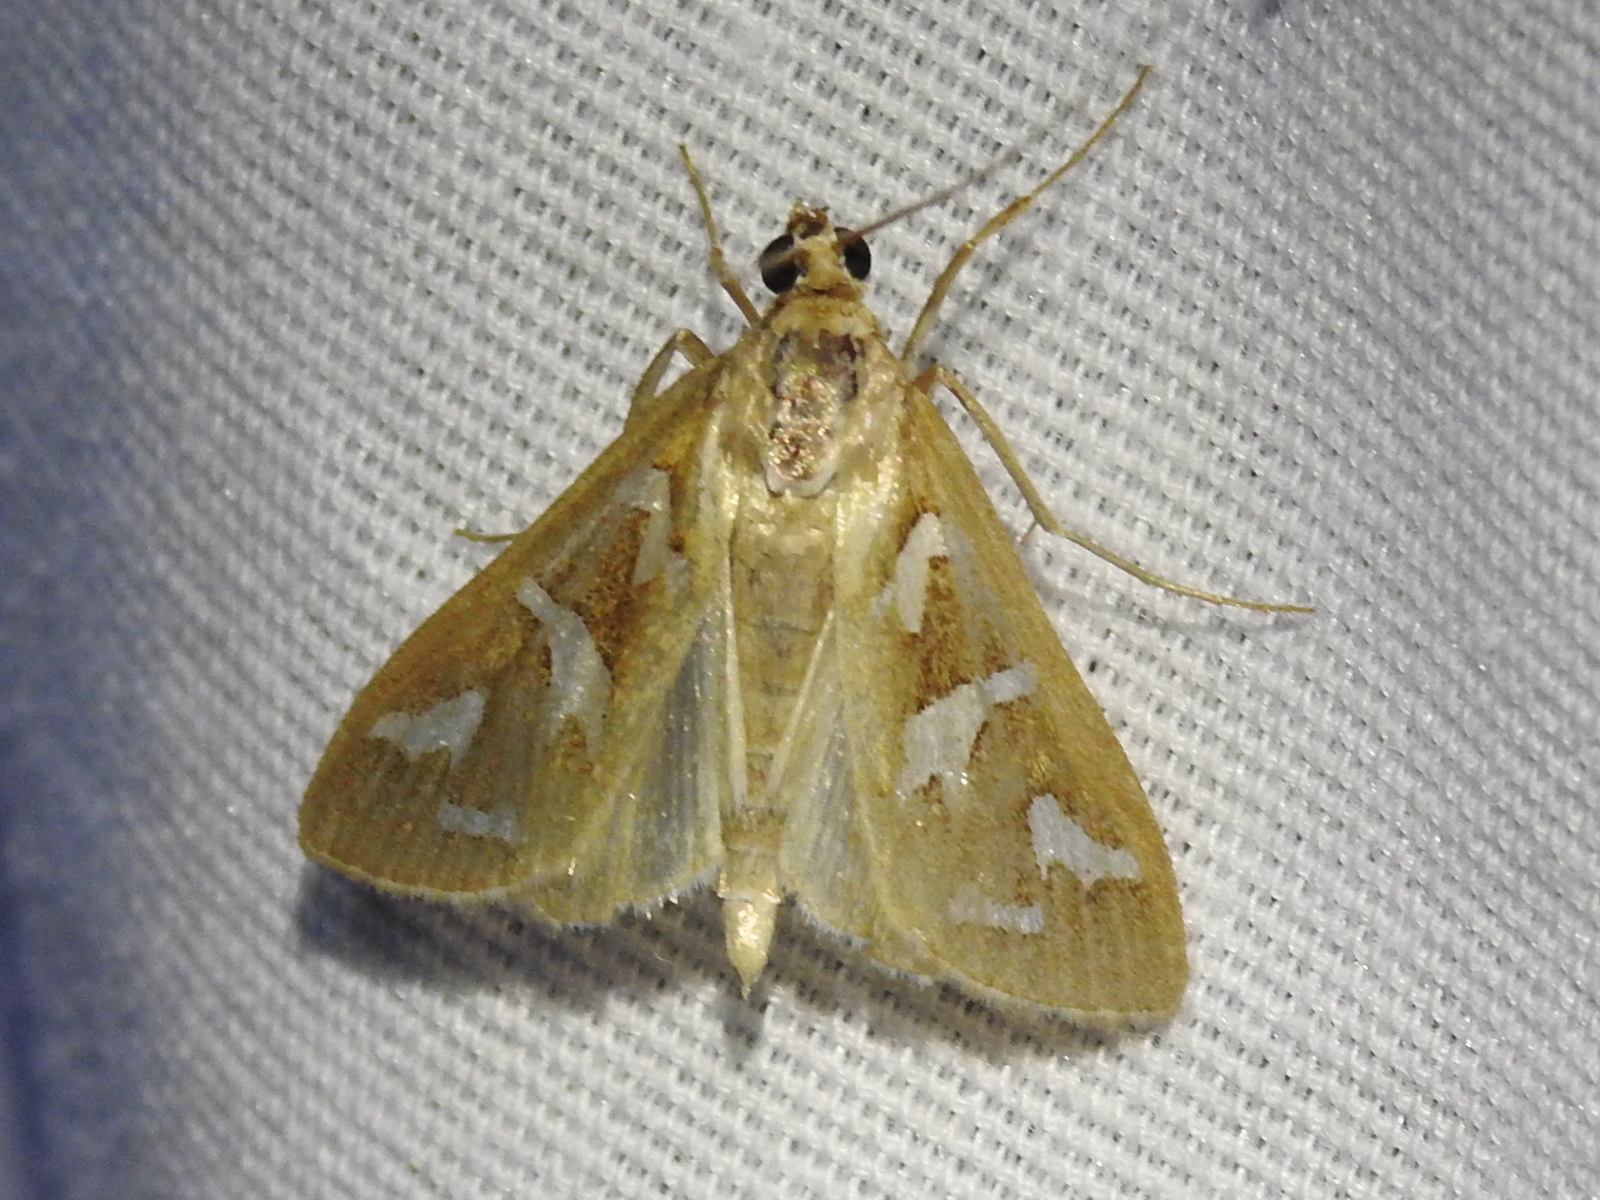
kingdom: Animalia
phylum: Arthropoda
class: Insecta
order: Lepidoptera
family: Crambidae
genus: Diastictis
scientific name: Diastictis fracturalis
